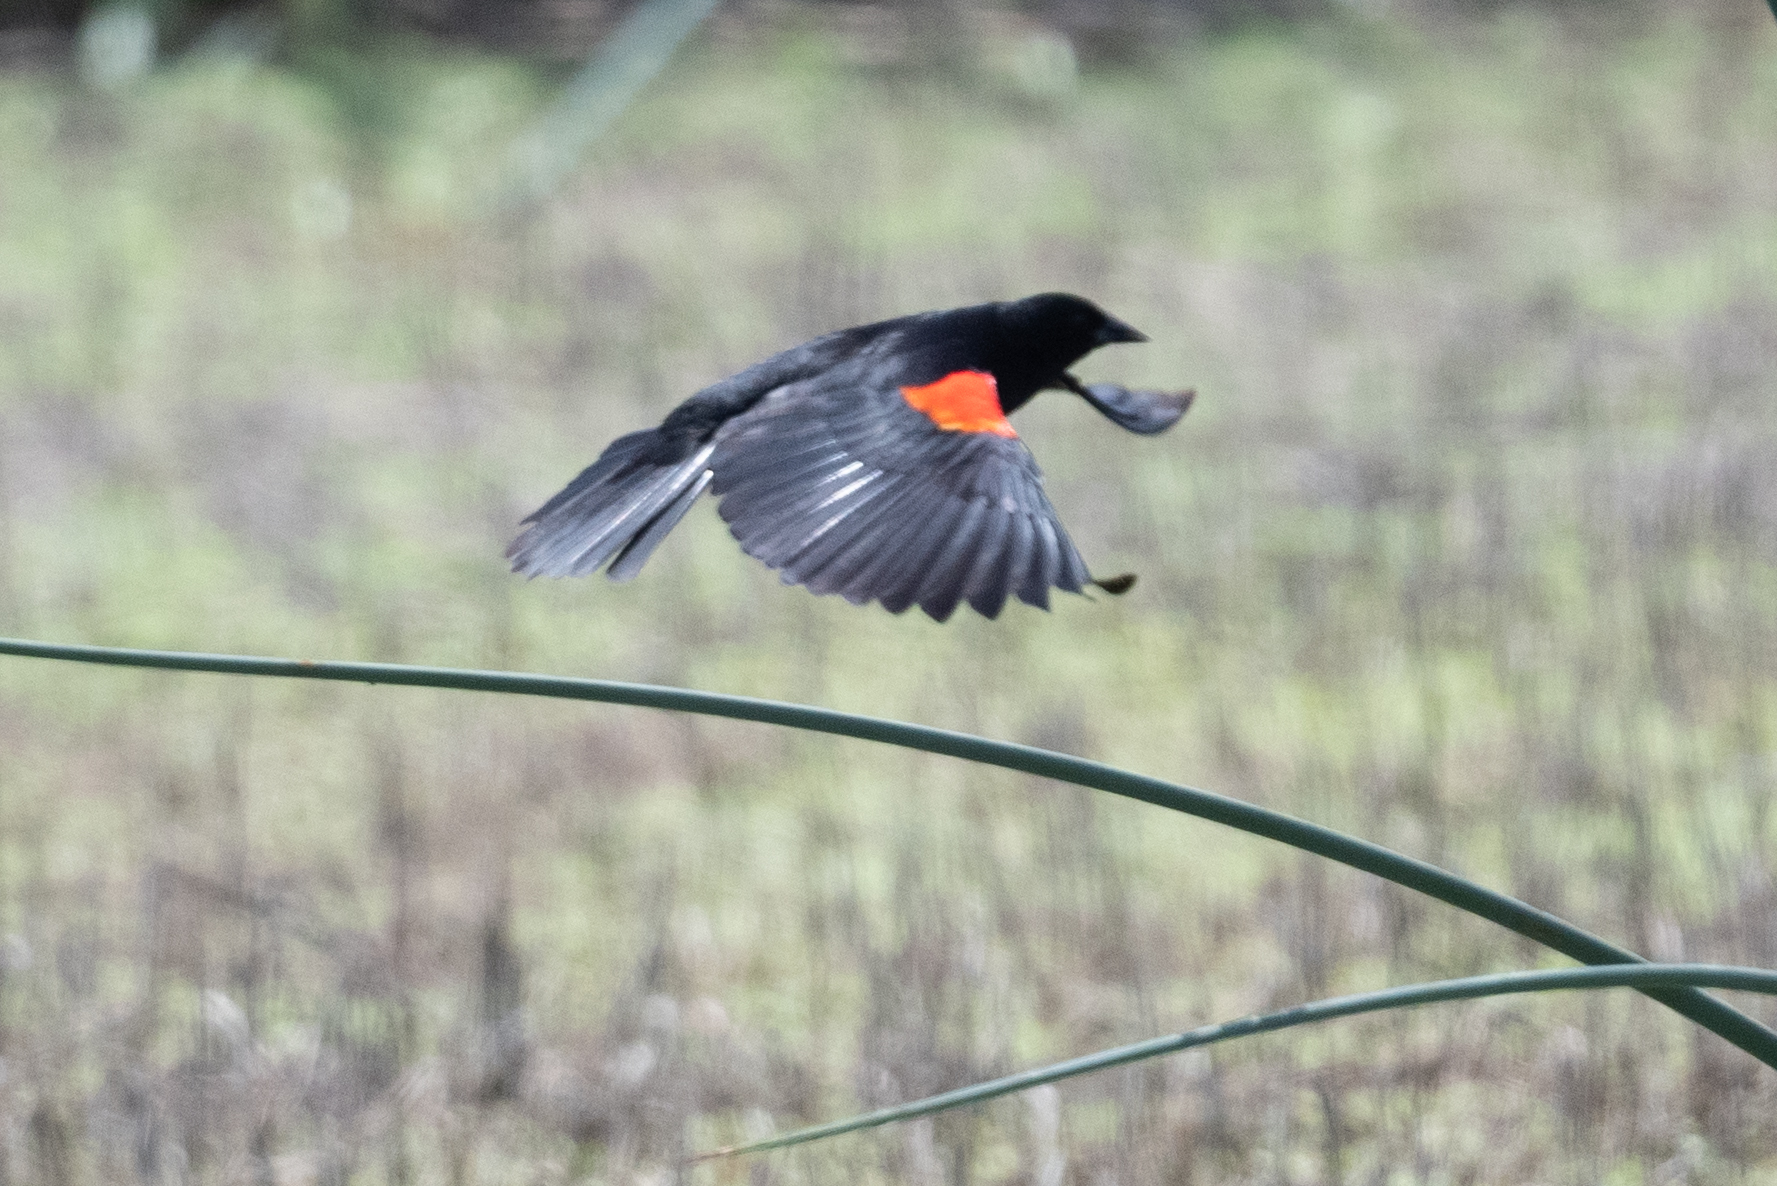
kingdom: Animalia
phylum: Chordata
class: Aves
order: Passeriformes
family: Icteridae
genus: Agelaius
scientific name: Agelaius phoeniceus
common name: Red-winged blackbird
